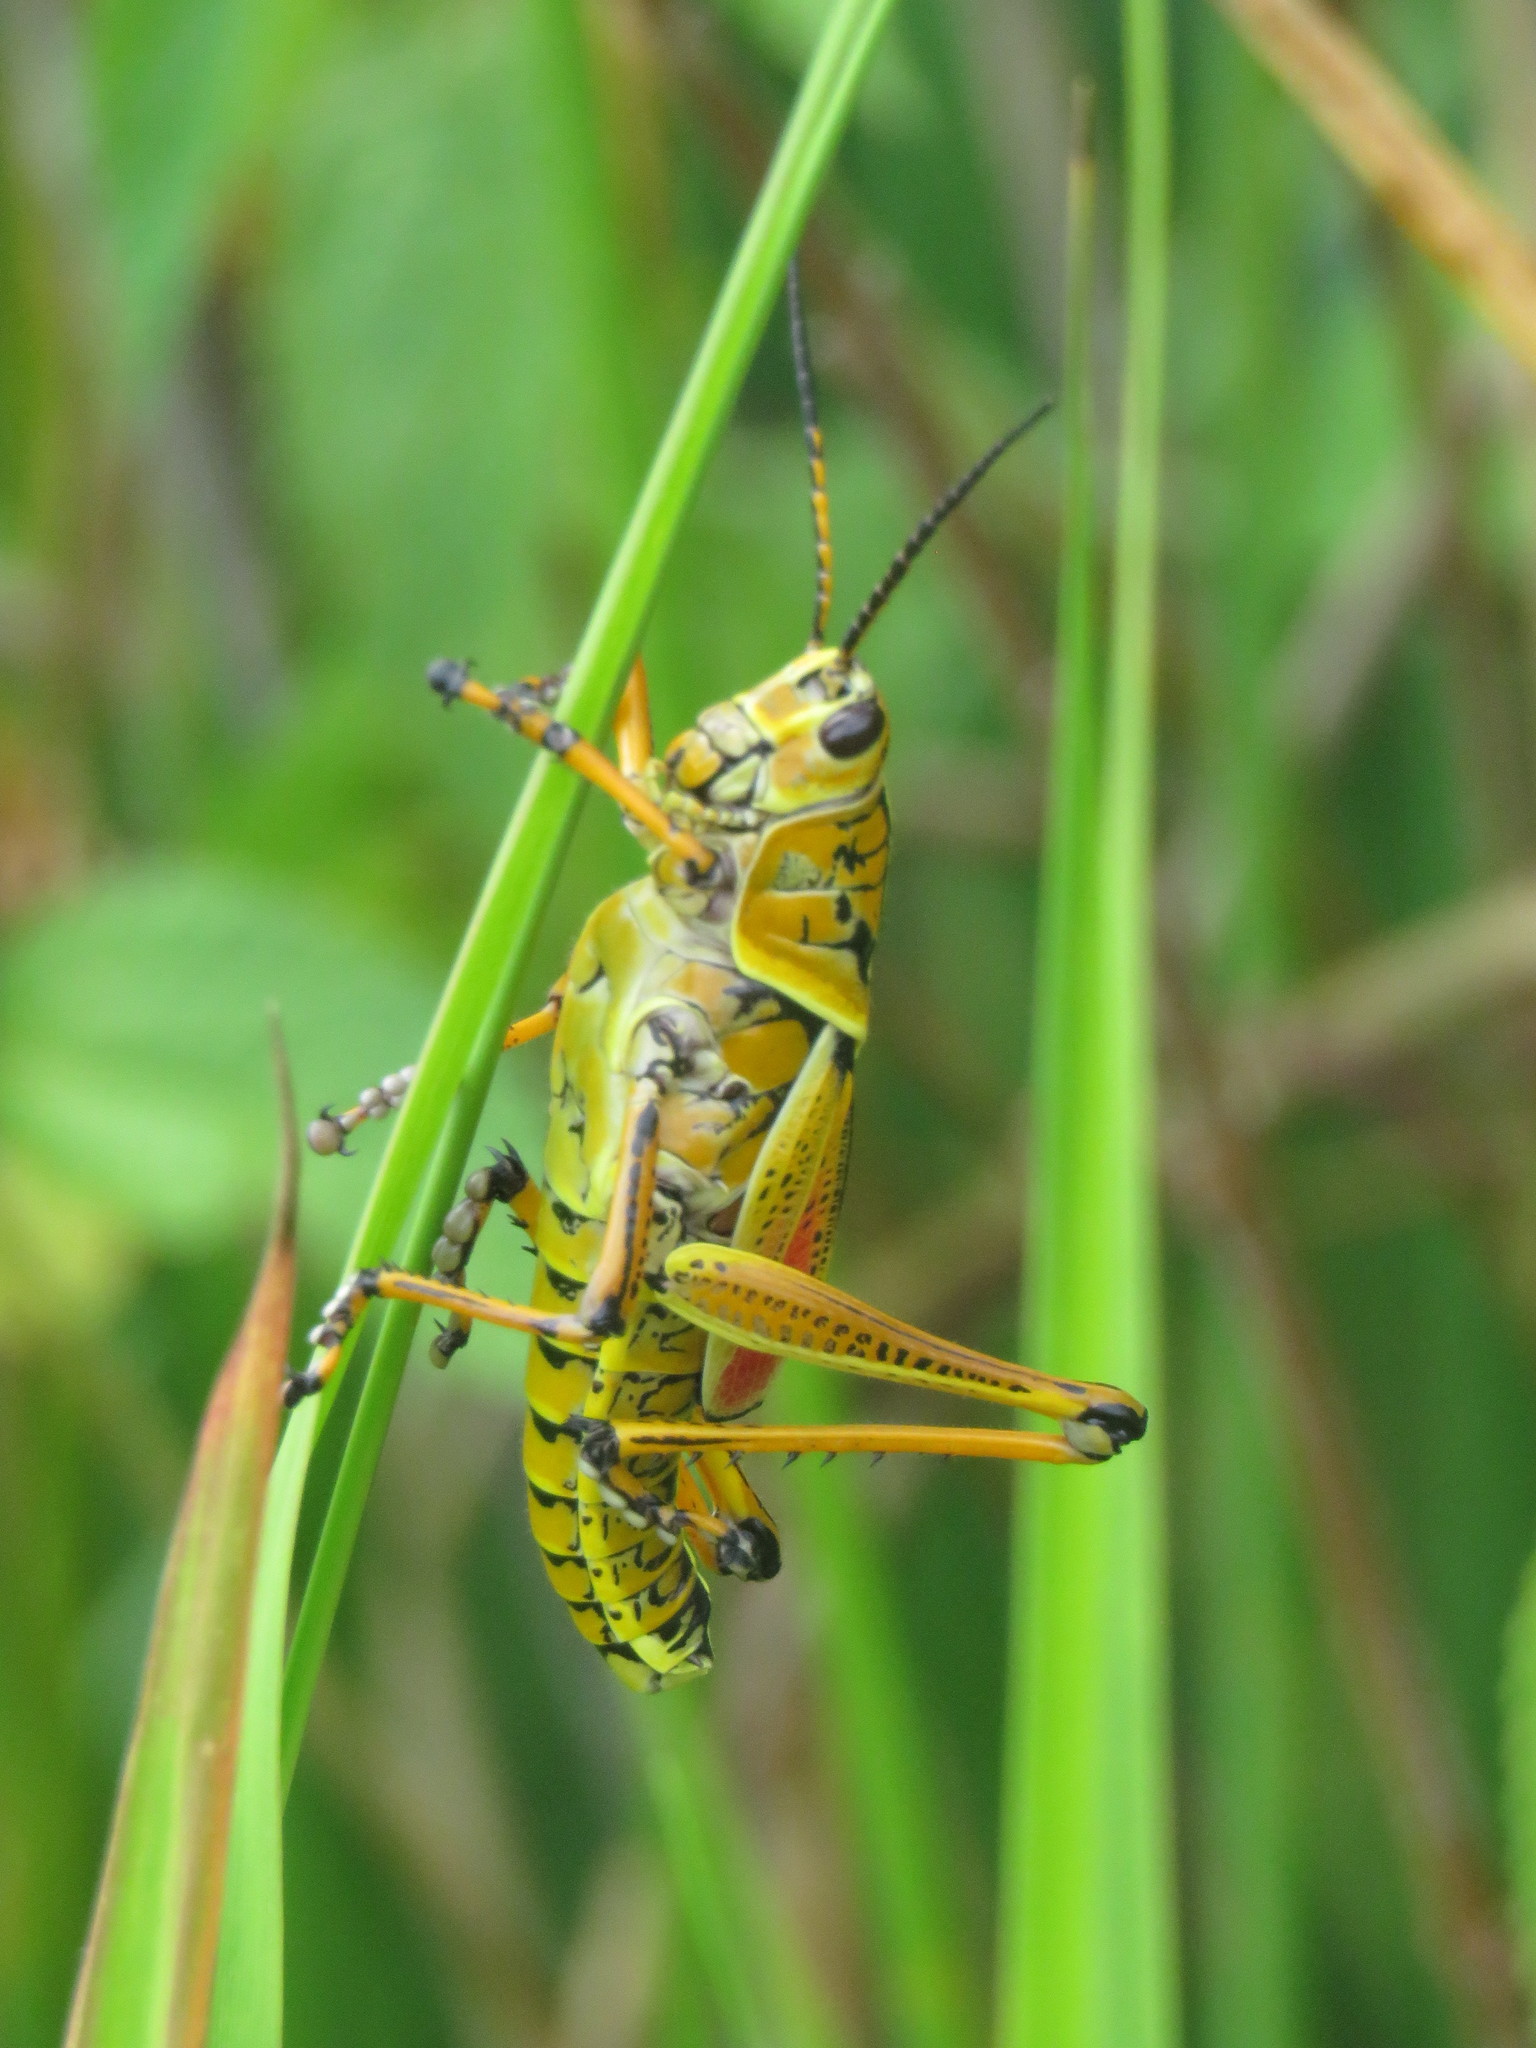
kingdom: Animalia
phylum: Arthropoda
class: Insecta
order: Orthoptera
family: Romaleidae
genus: Romalea
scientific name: Romalea microptera
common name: Eastern lubber grasshopper
